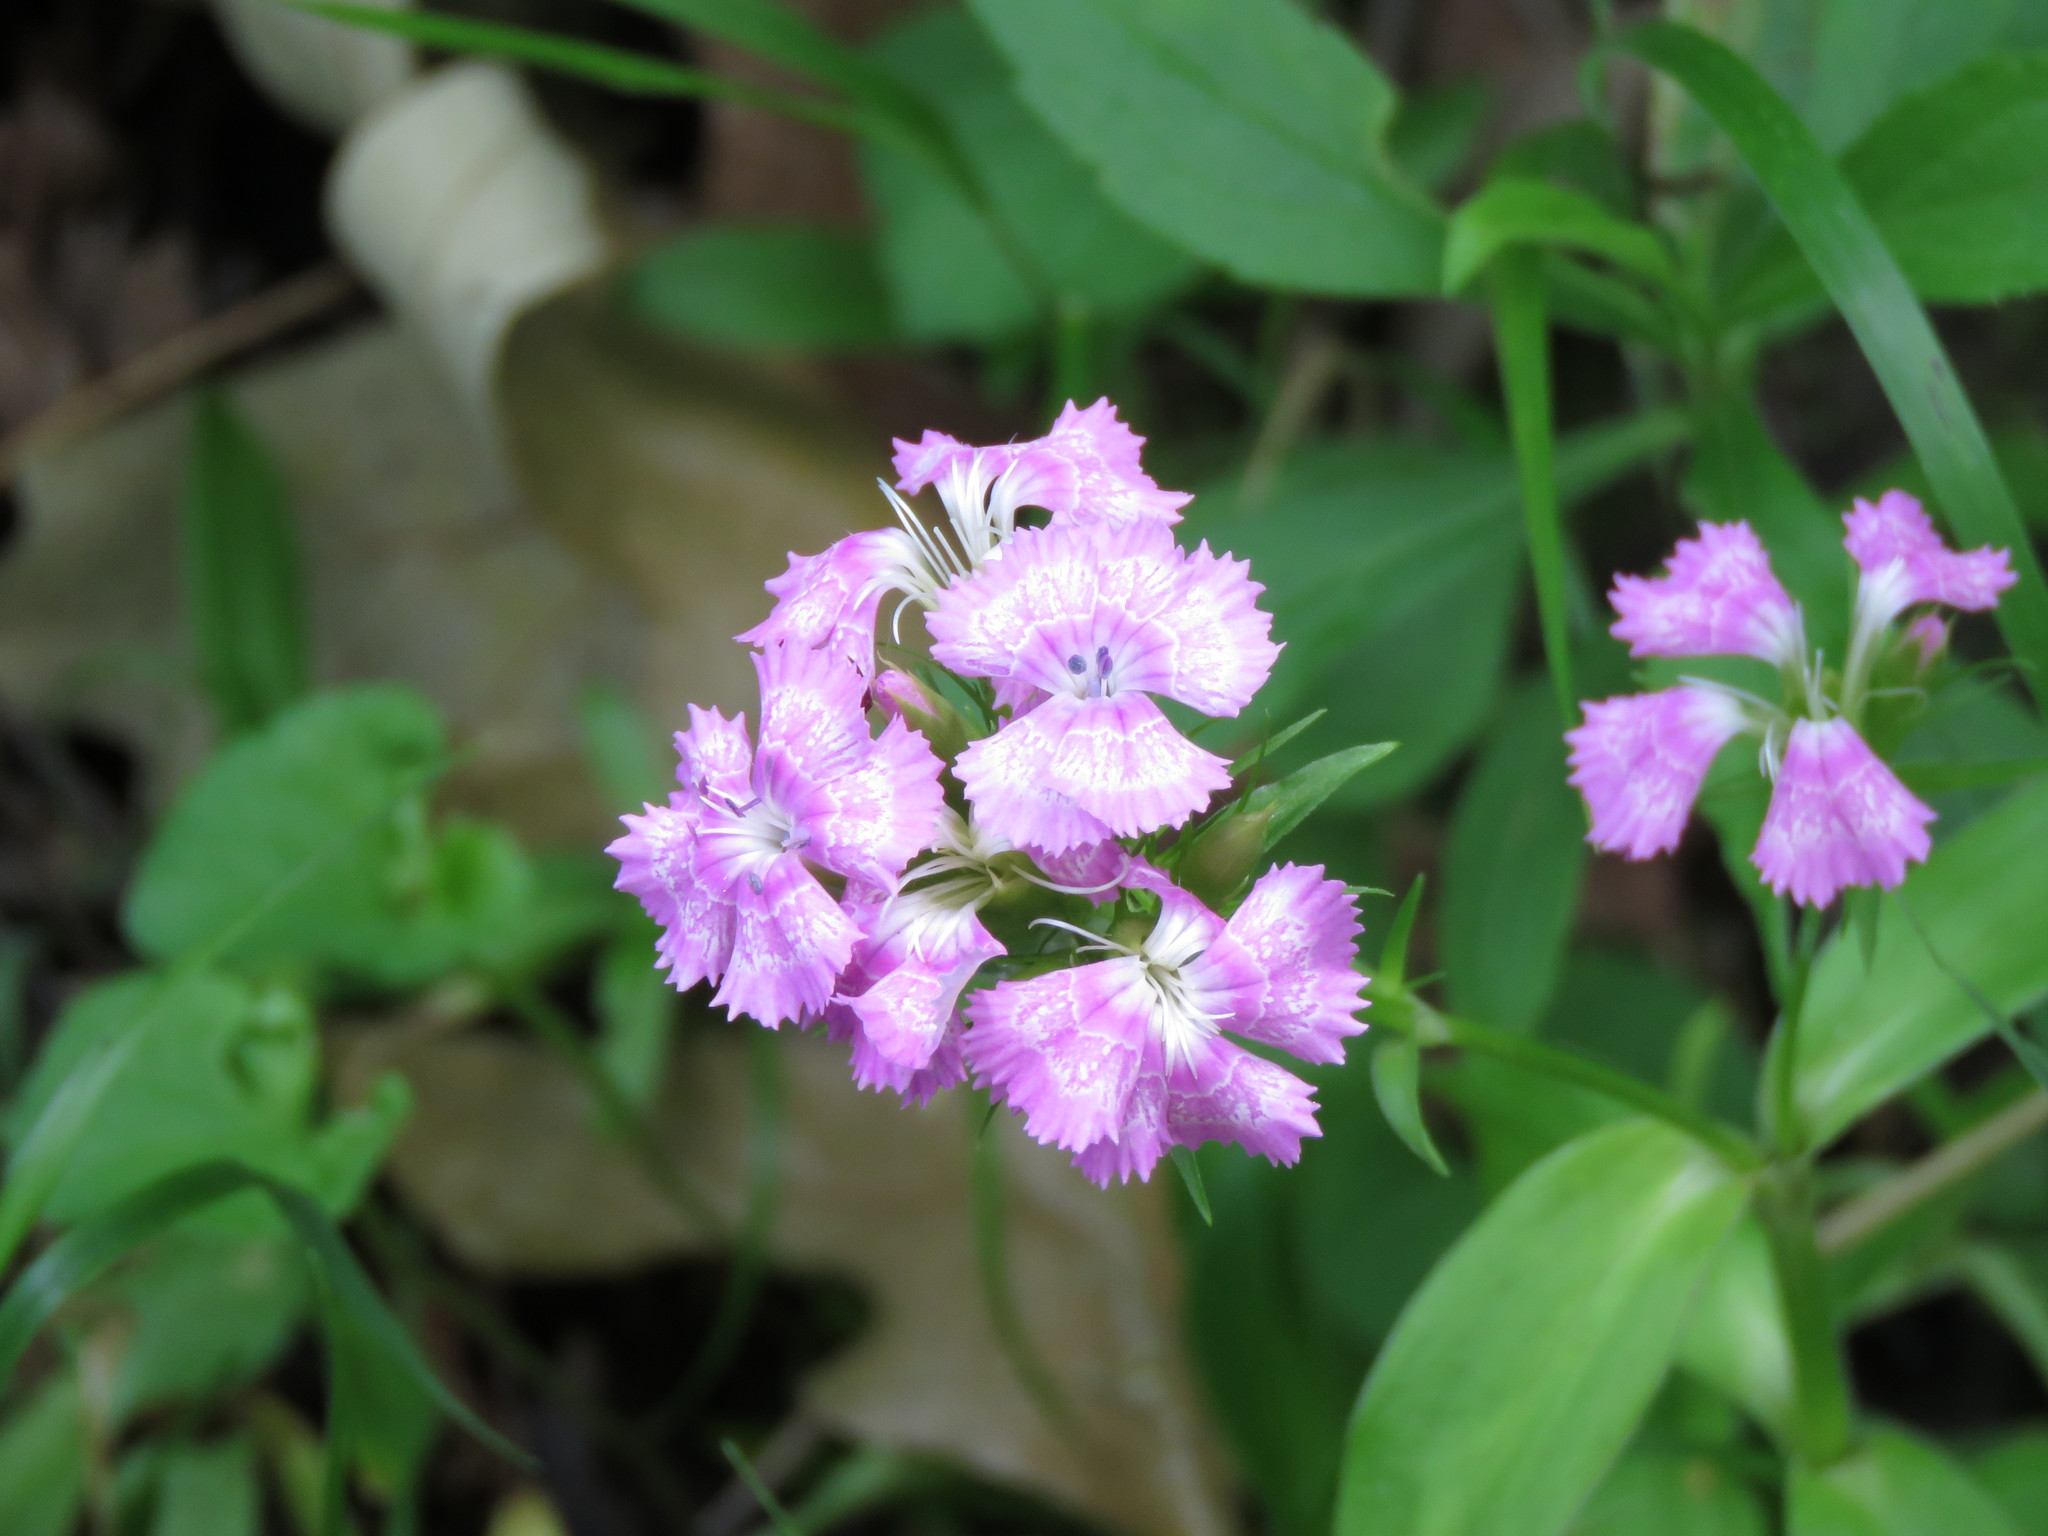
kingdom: Plantae
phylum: Tracheophyta
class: Magnoliopsida
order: Caryophyllales
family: Caryophyllaceae
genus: Dianthus
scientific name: Dianthus barbatus
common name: Sweet-william
